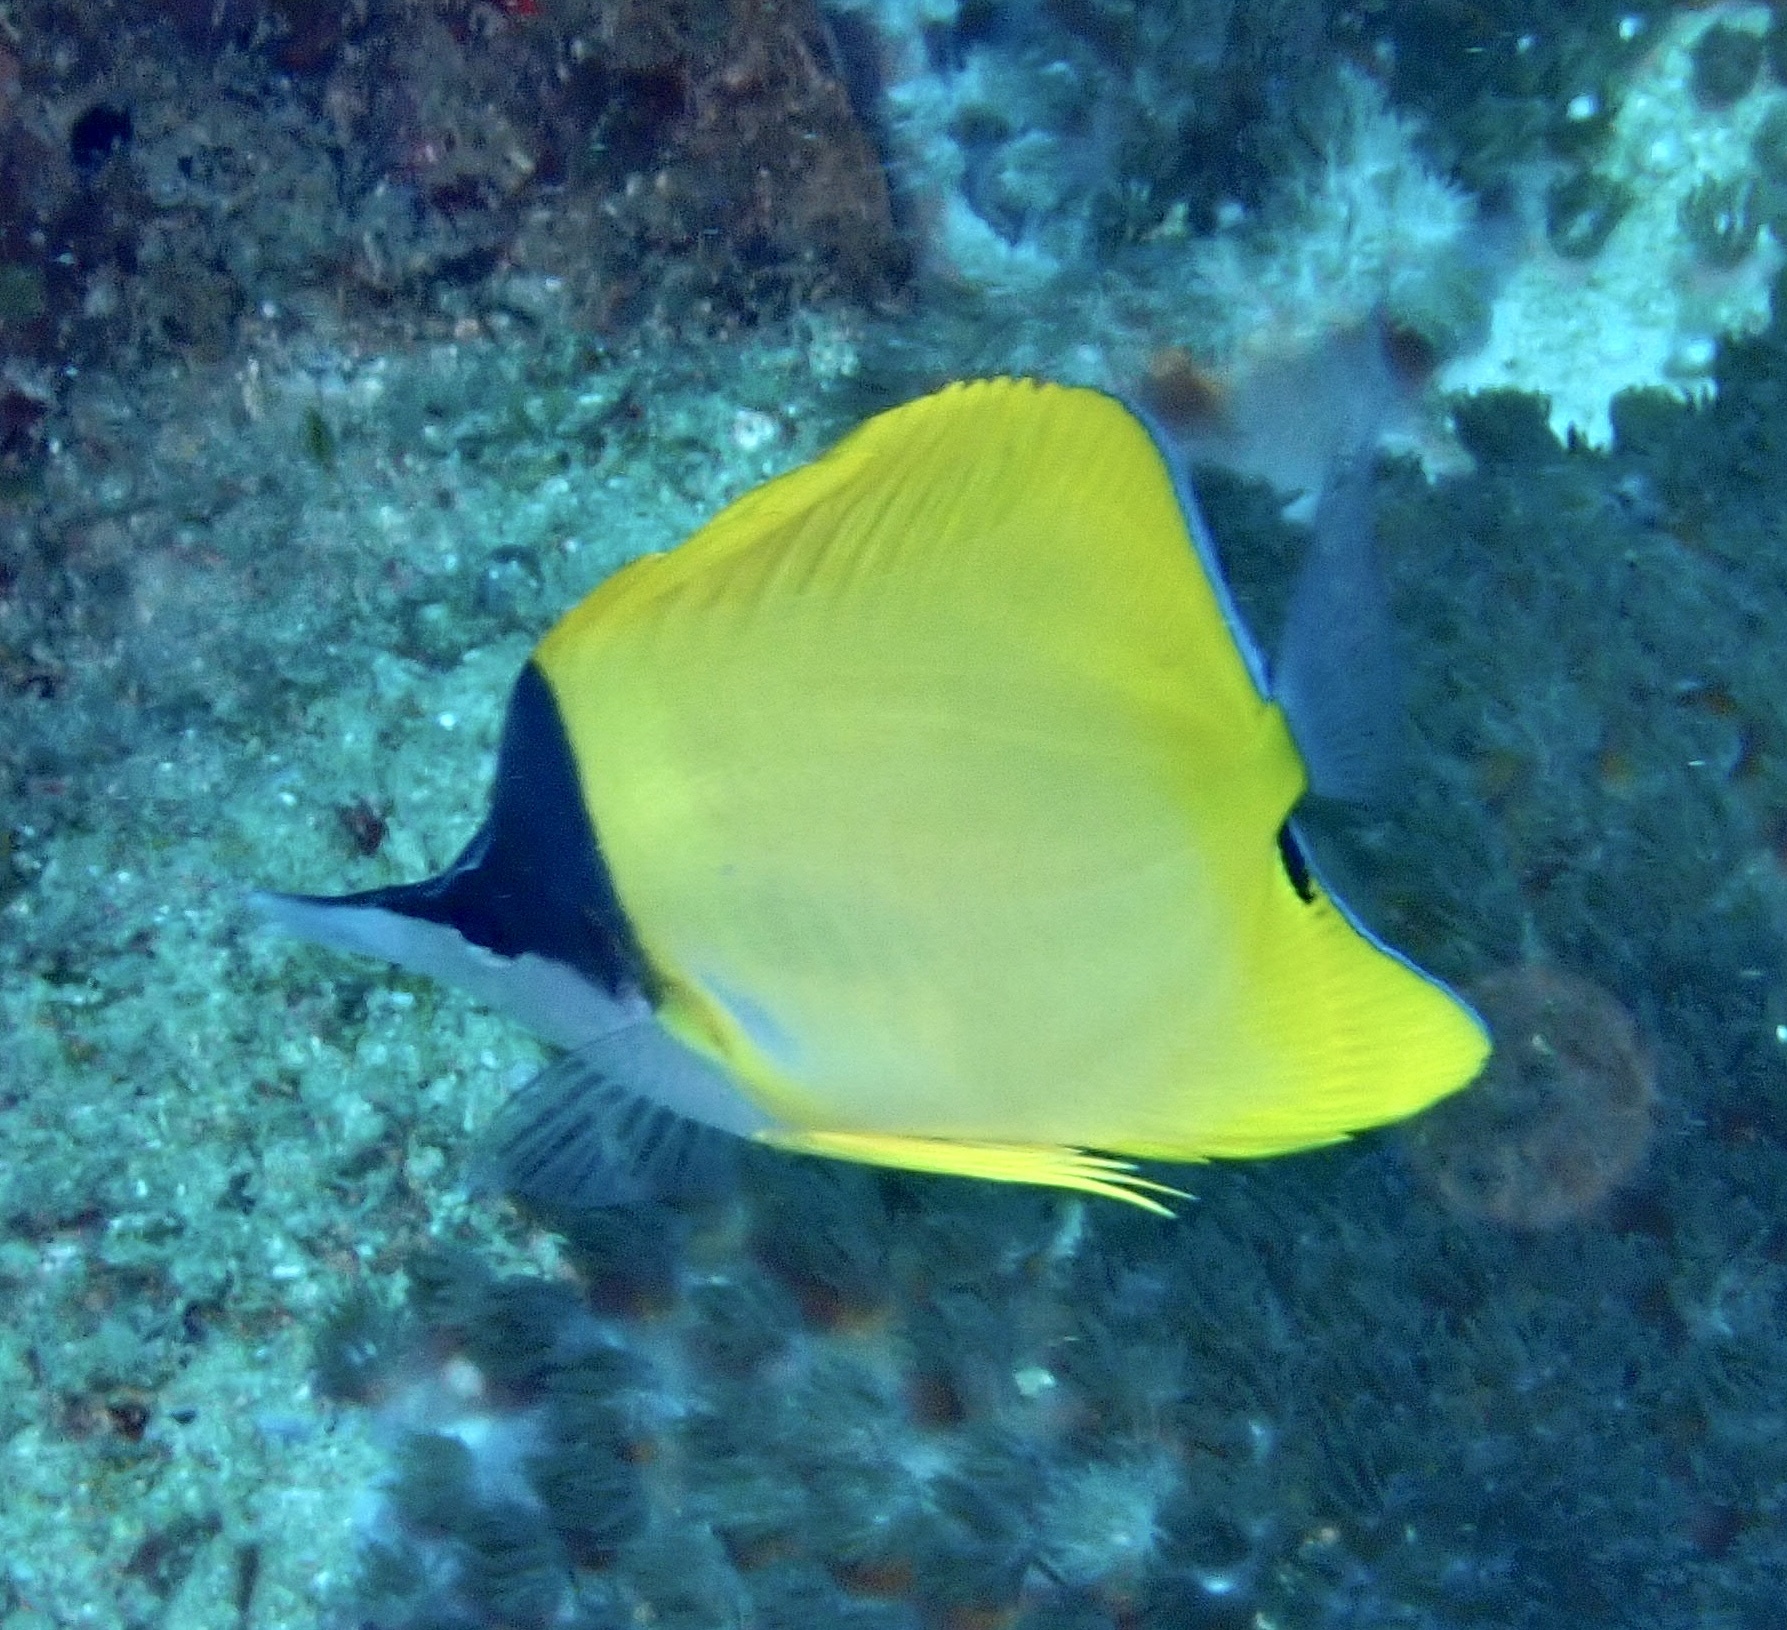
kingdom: Animalia
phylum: Chordata
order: Perciformes
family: Chaetodontidae
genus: Forcipiger
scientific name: Forcipiger flavissimus
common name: Forcepsfish
